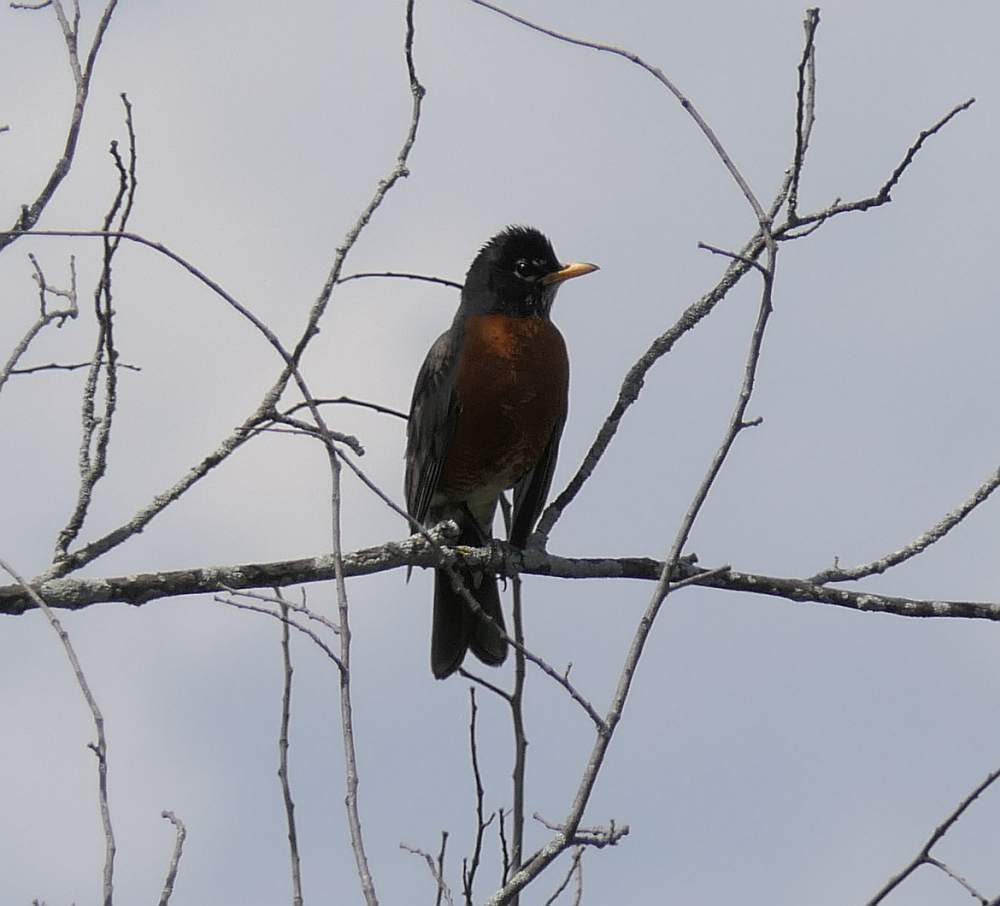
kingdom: Animalia
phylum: Chordata
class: Aves
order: Passeriformes
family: Turdidae
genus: Turdus
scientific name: Turdus migratorius
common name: American robin
